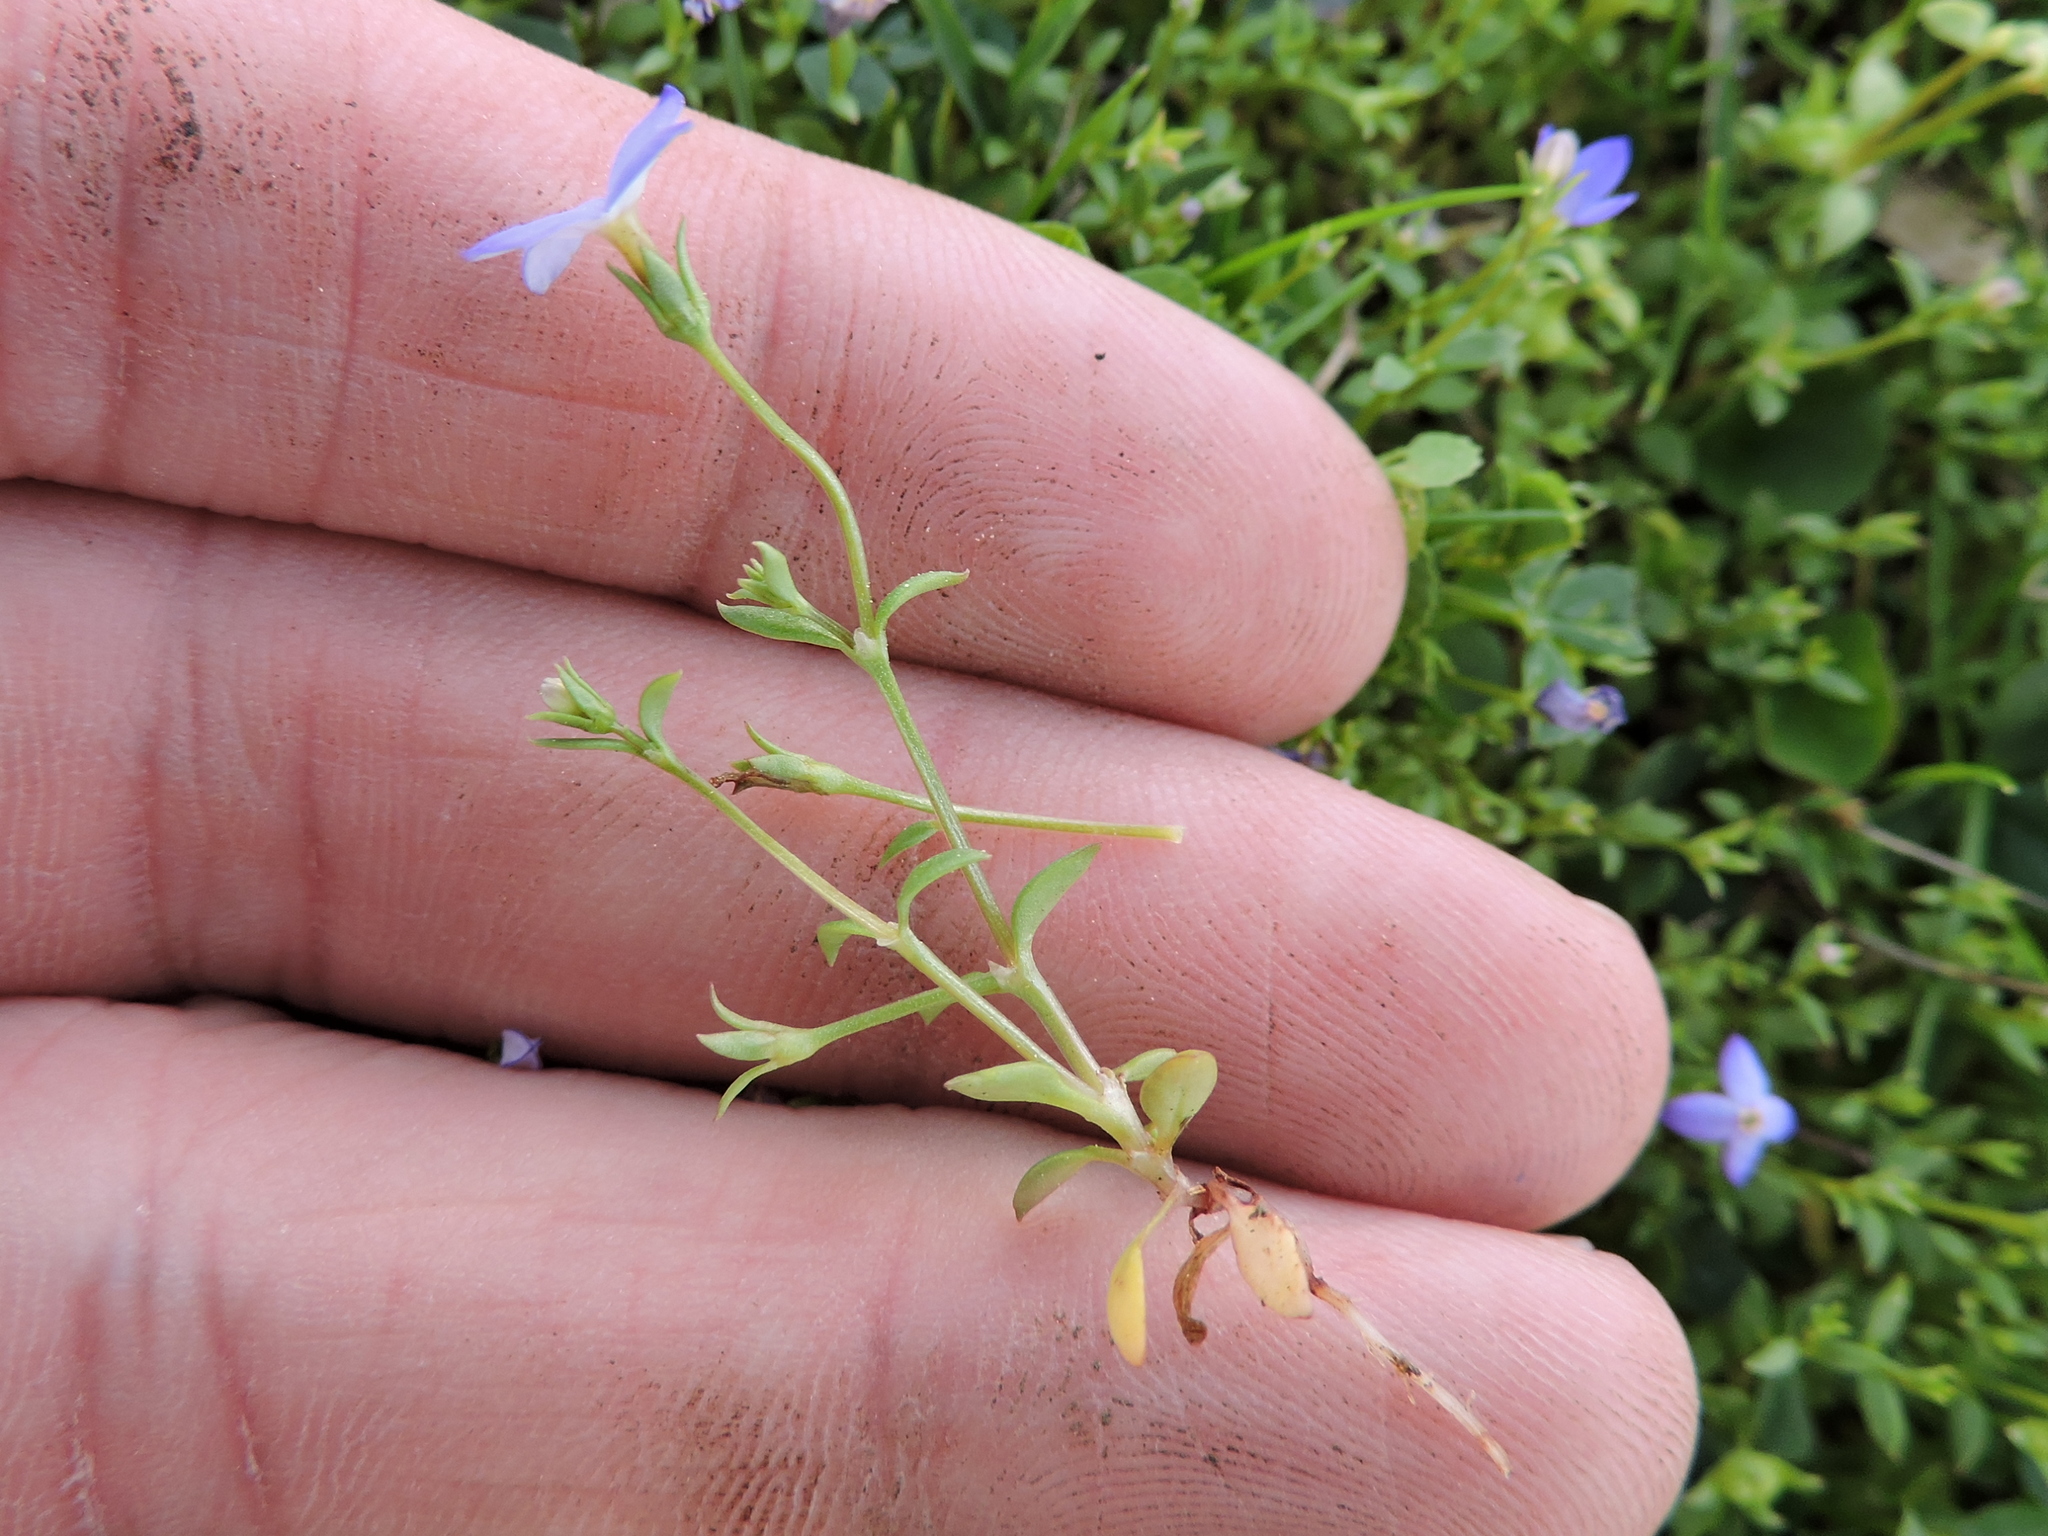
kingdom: Plantae
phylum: Tracheophyta
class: Magnoliopsida
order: Gentianales
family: Rubiaceae
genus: Houstonia
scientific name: Houstonia pusilla
